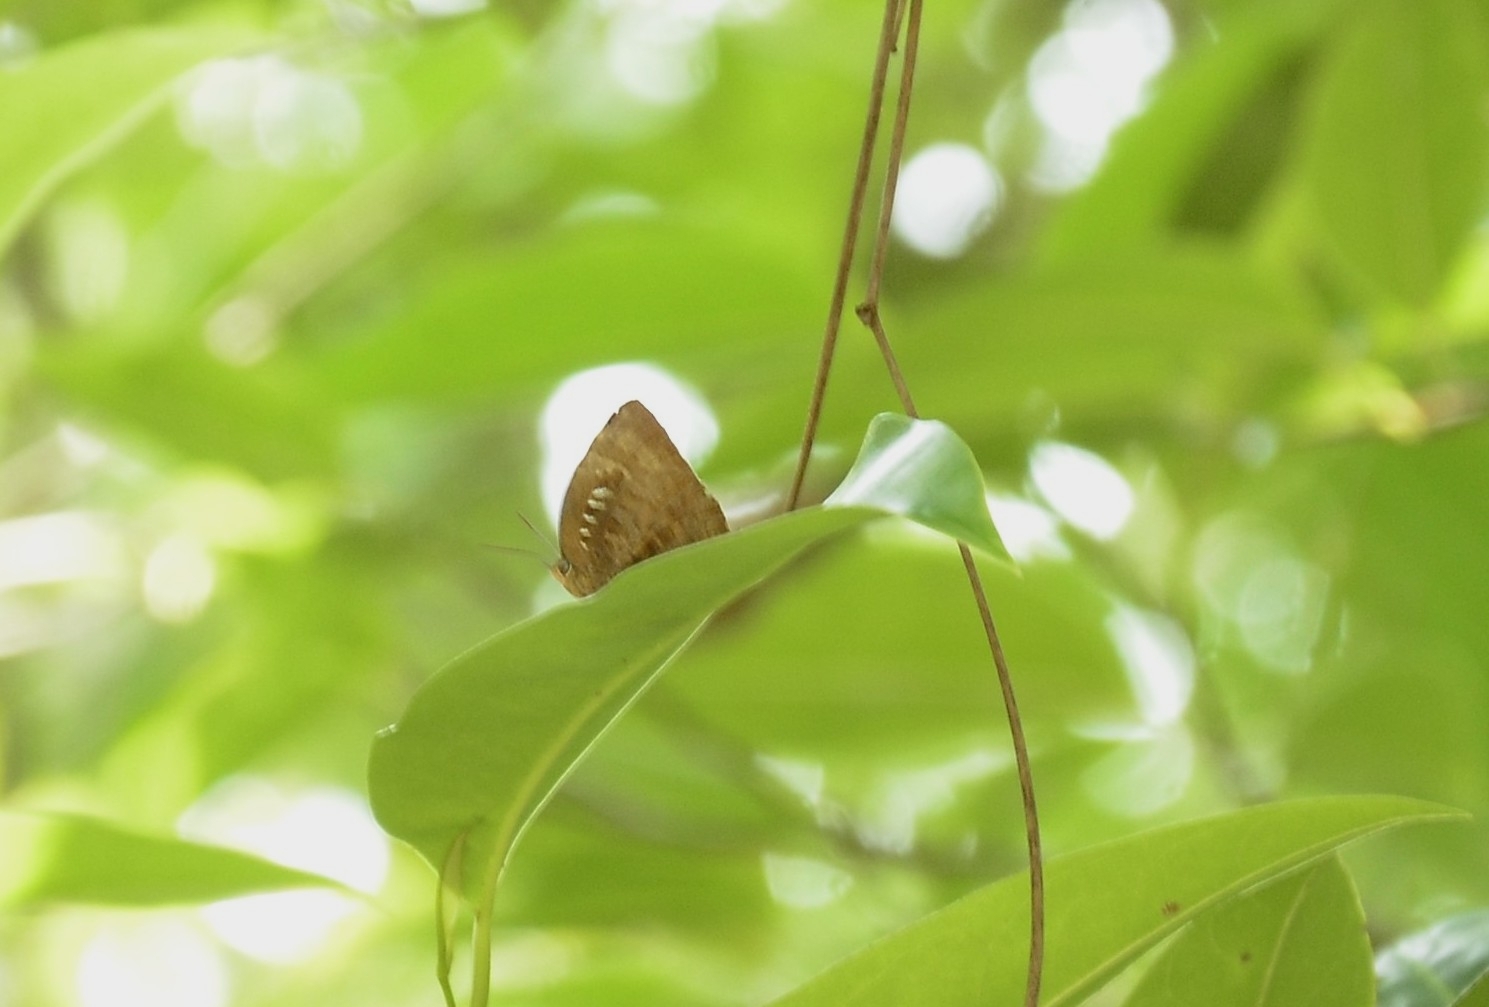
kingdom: Animalia
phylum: Arthropoda
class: Insecta
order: Lepidoptera
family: Lycaenidae
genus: Arhopala
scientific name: Arhopala centaurus
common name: Dull oak-blue
